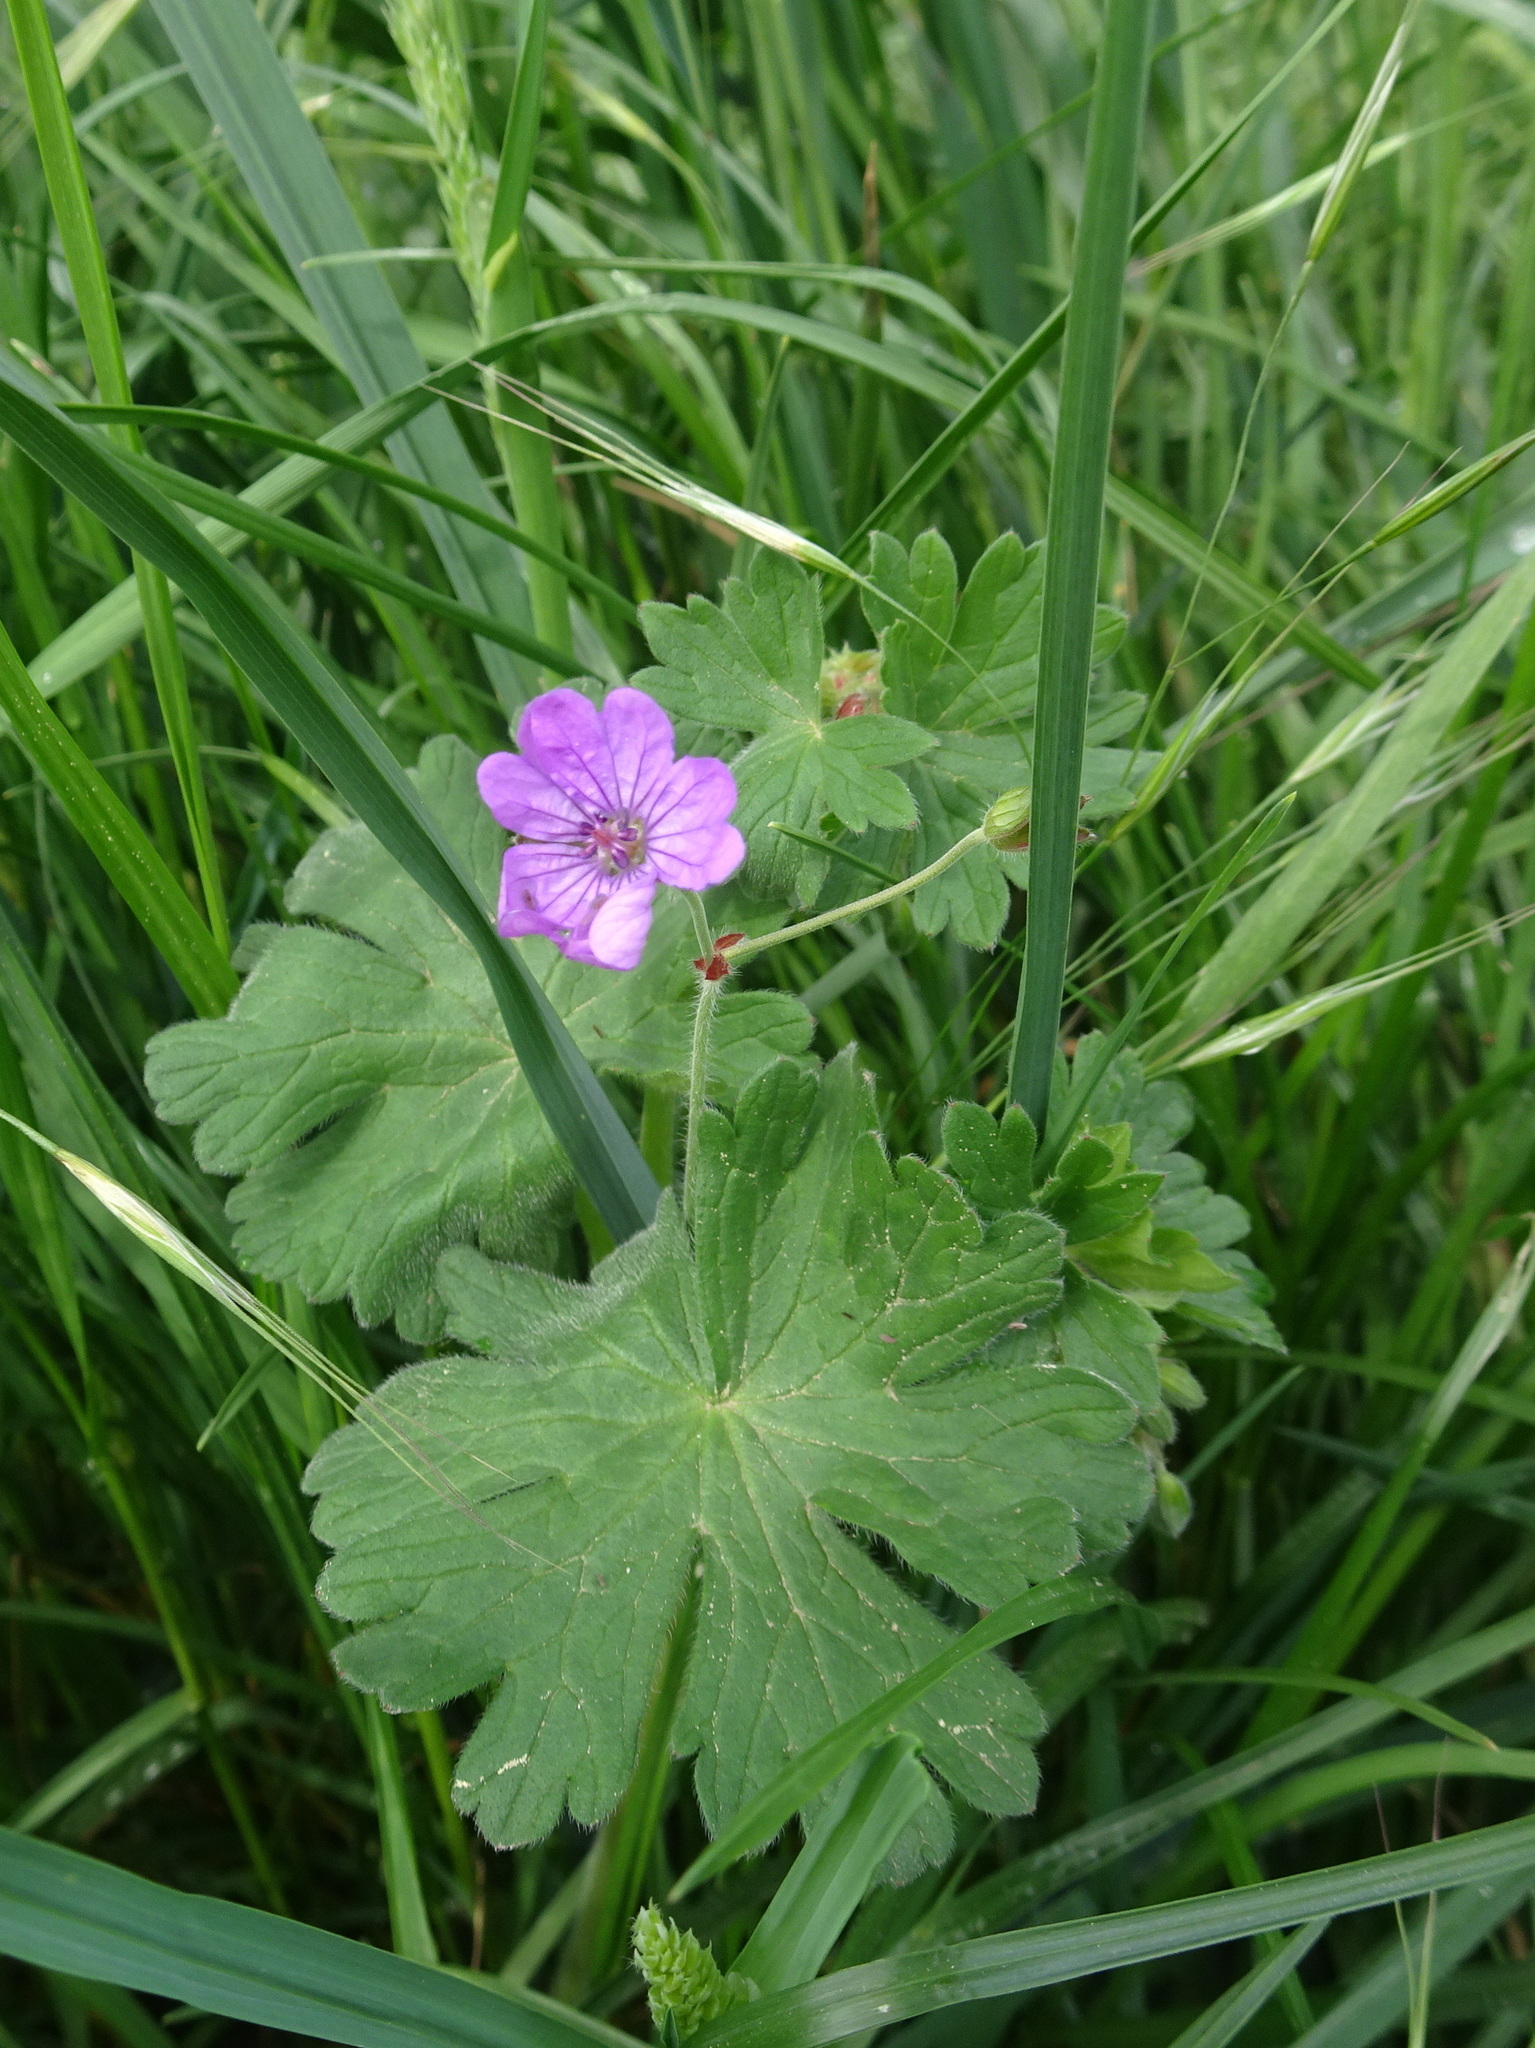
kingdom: Plantae
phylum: Tracheophyta
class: Magnoliopsida
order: Geraniales
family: Geraniaceae
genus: Geranium
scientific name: Geranium pyrenaicum
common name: Hedgerow crane's-bill
